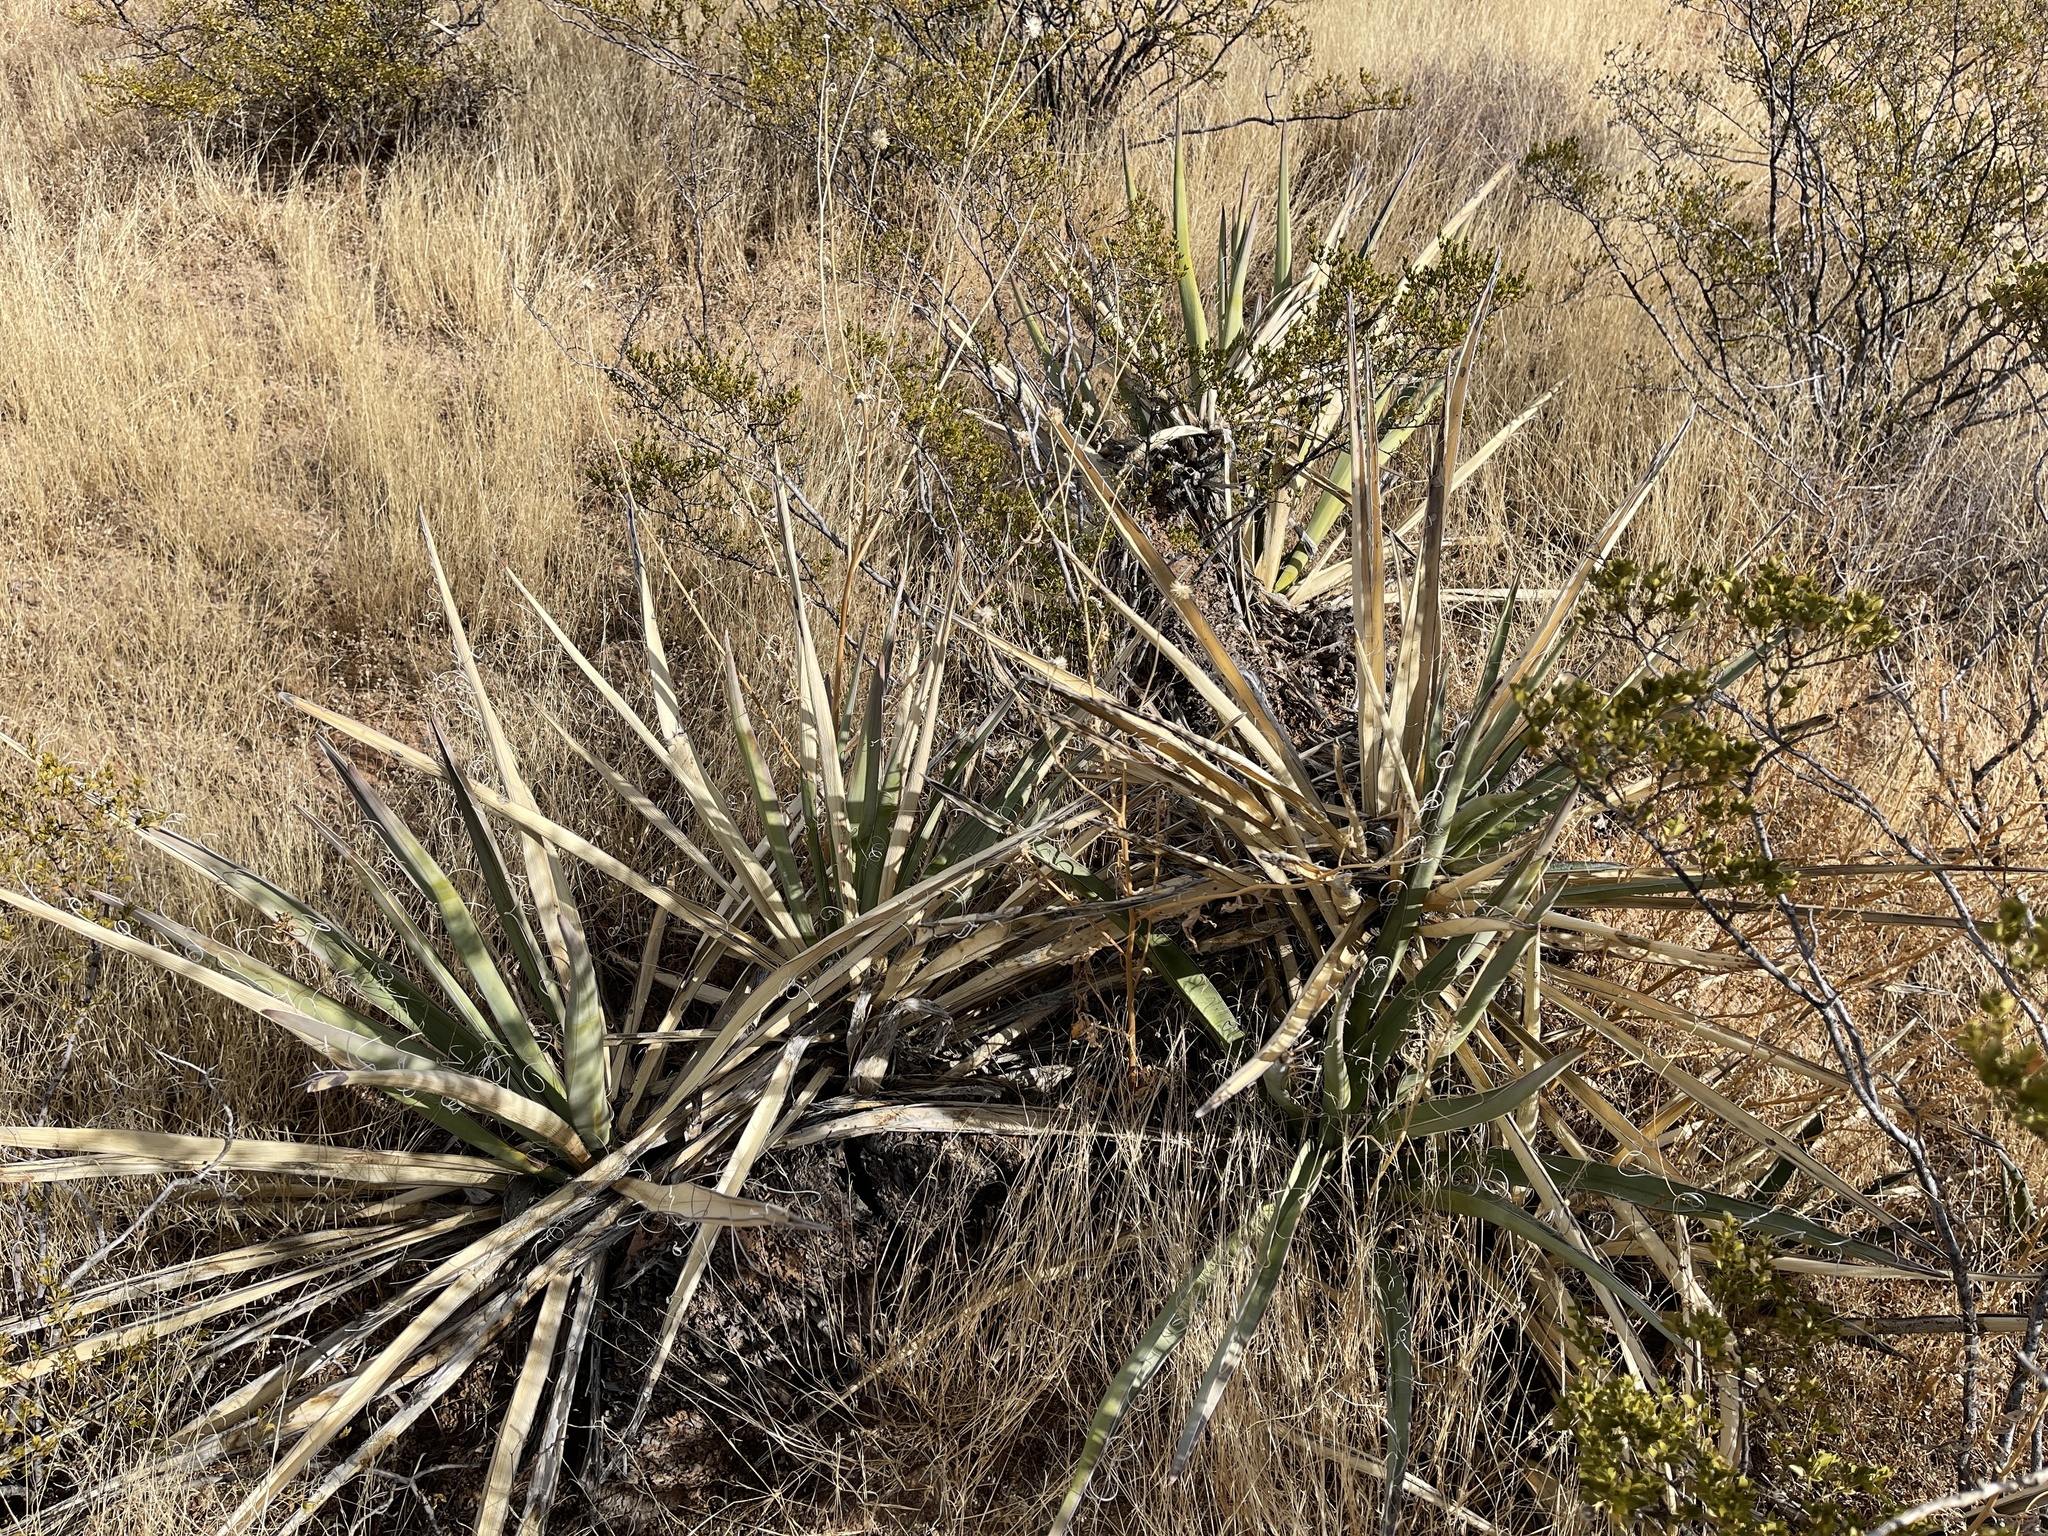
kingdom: Plantae
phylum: Tracheophyta
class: Liliopsida
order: Asparagales
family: Asparagaceae
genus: Yucca
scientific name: Yucca baccata
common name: Banana yucca
